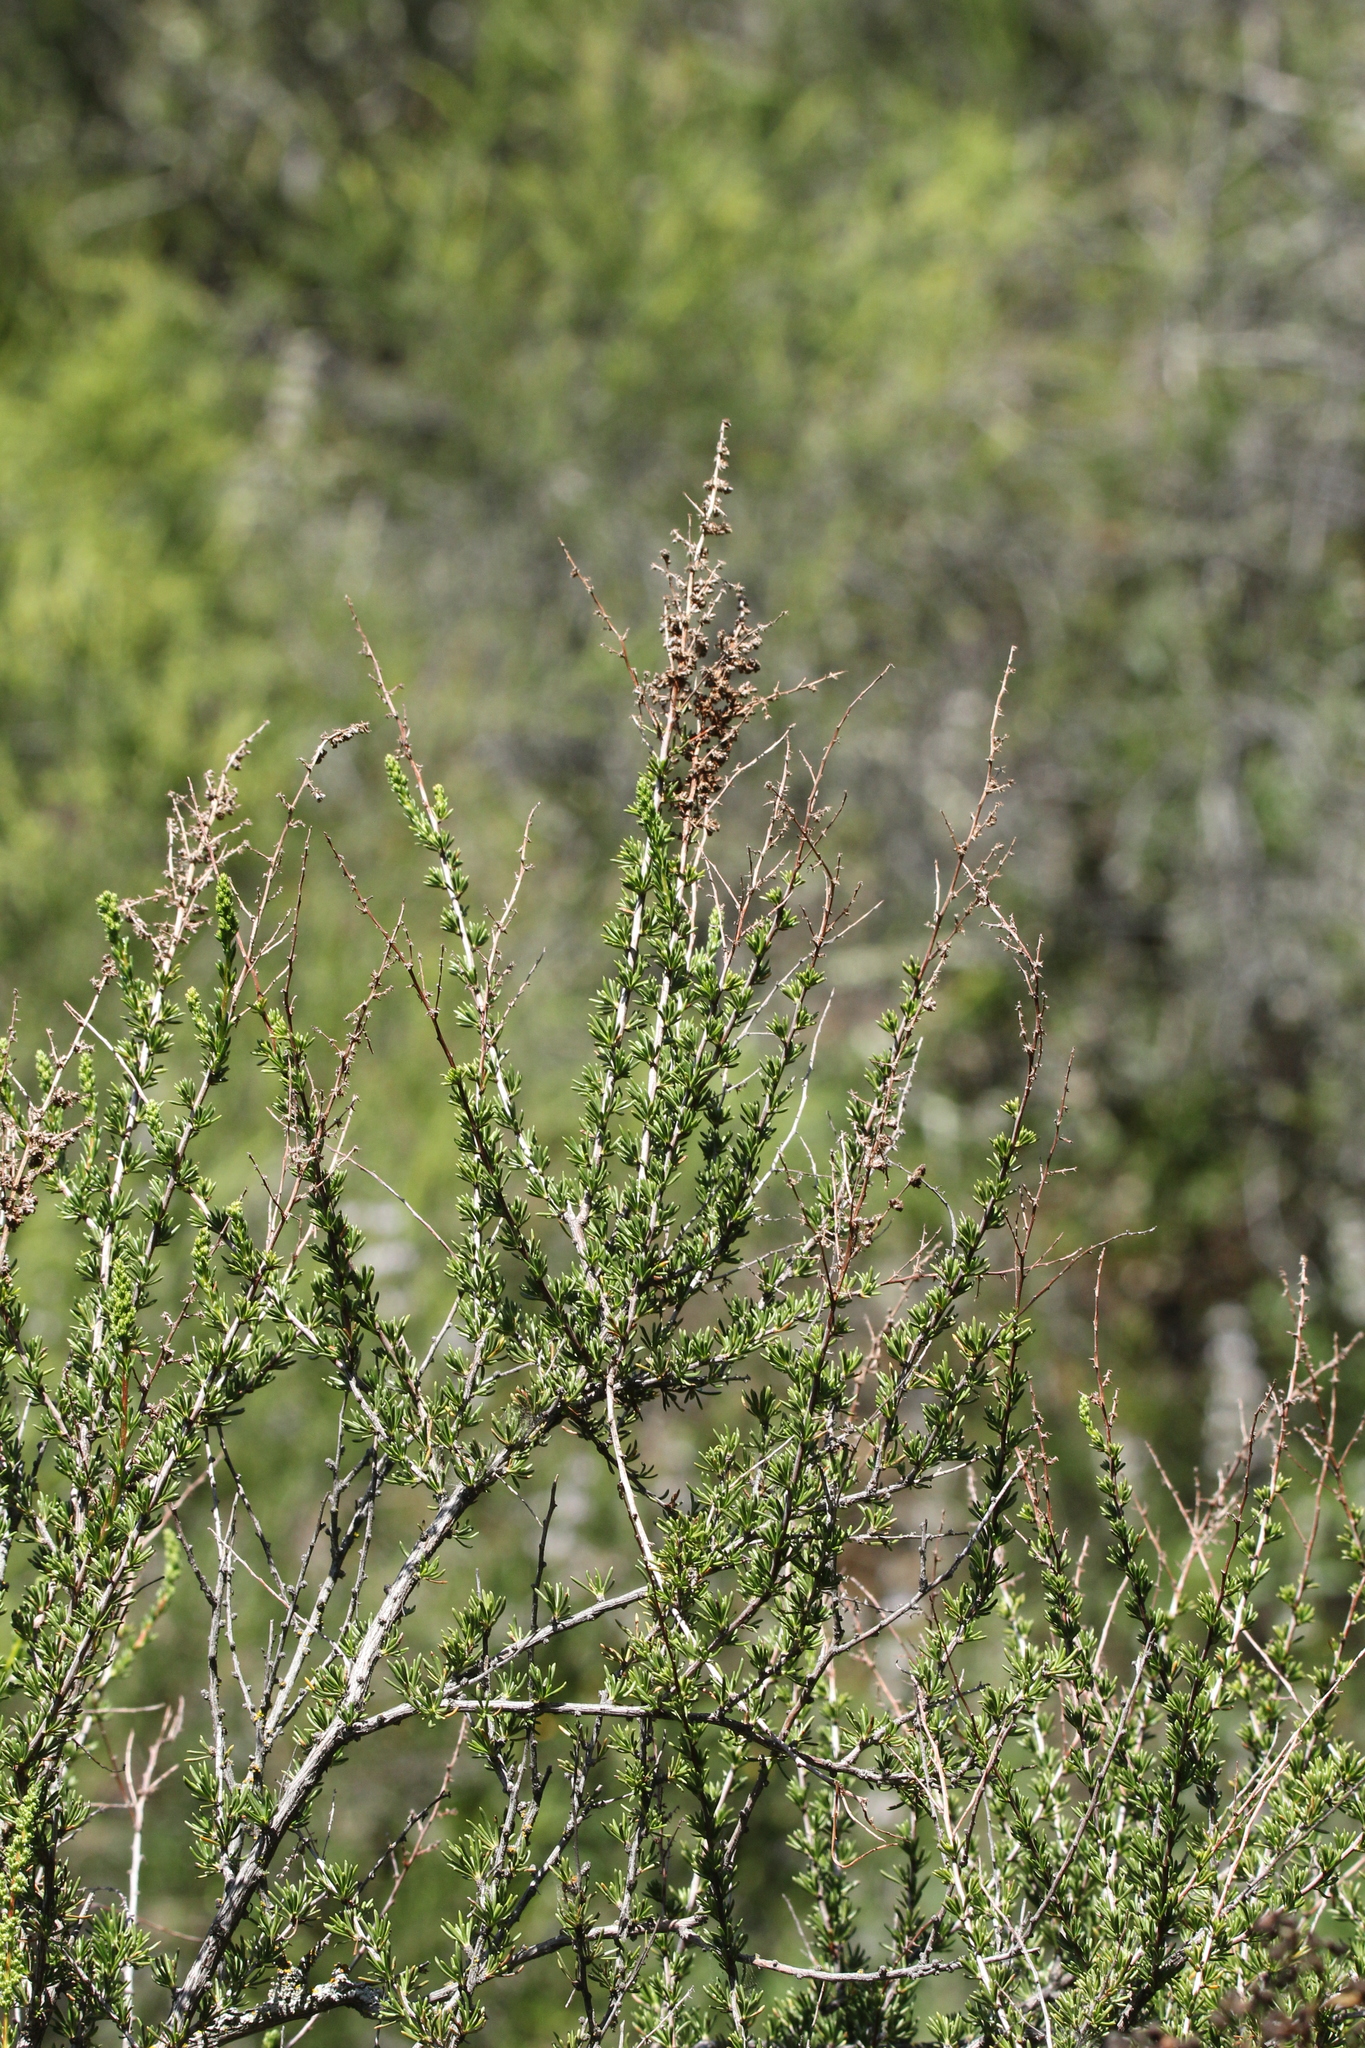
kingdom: Plantae
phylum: Tracheophyta
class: Magnoliopsida
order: Rosales
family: Rosaceae
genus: Adenostoma
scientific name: Adenostoma fasciculatum
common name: Chamise
